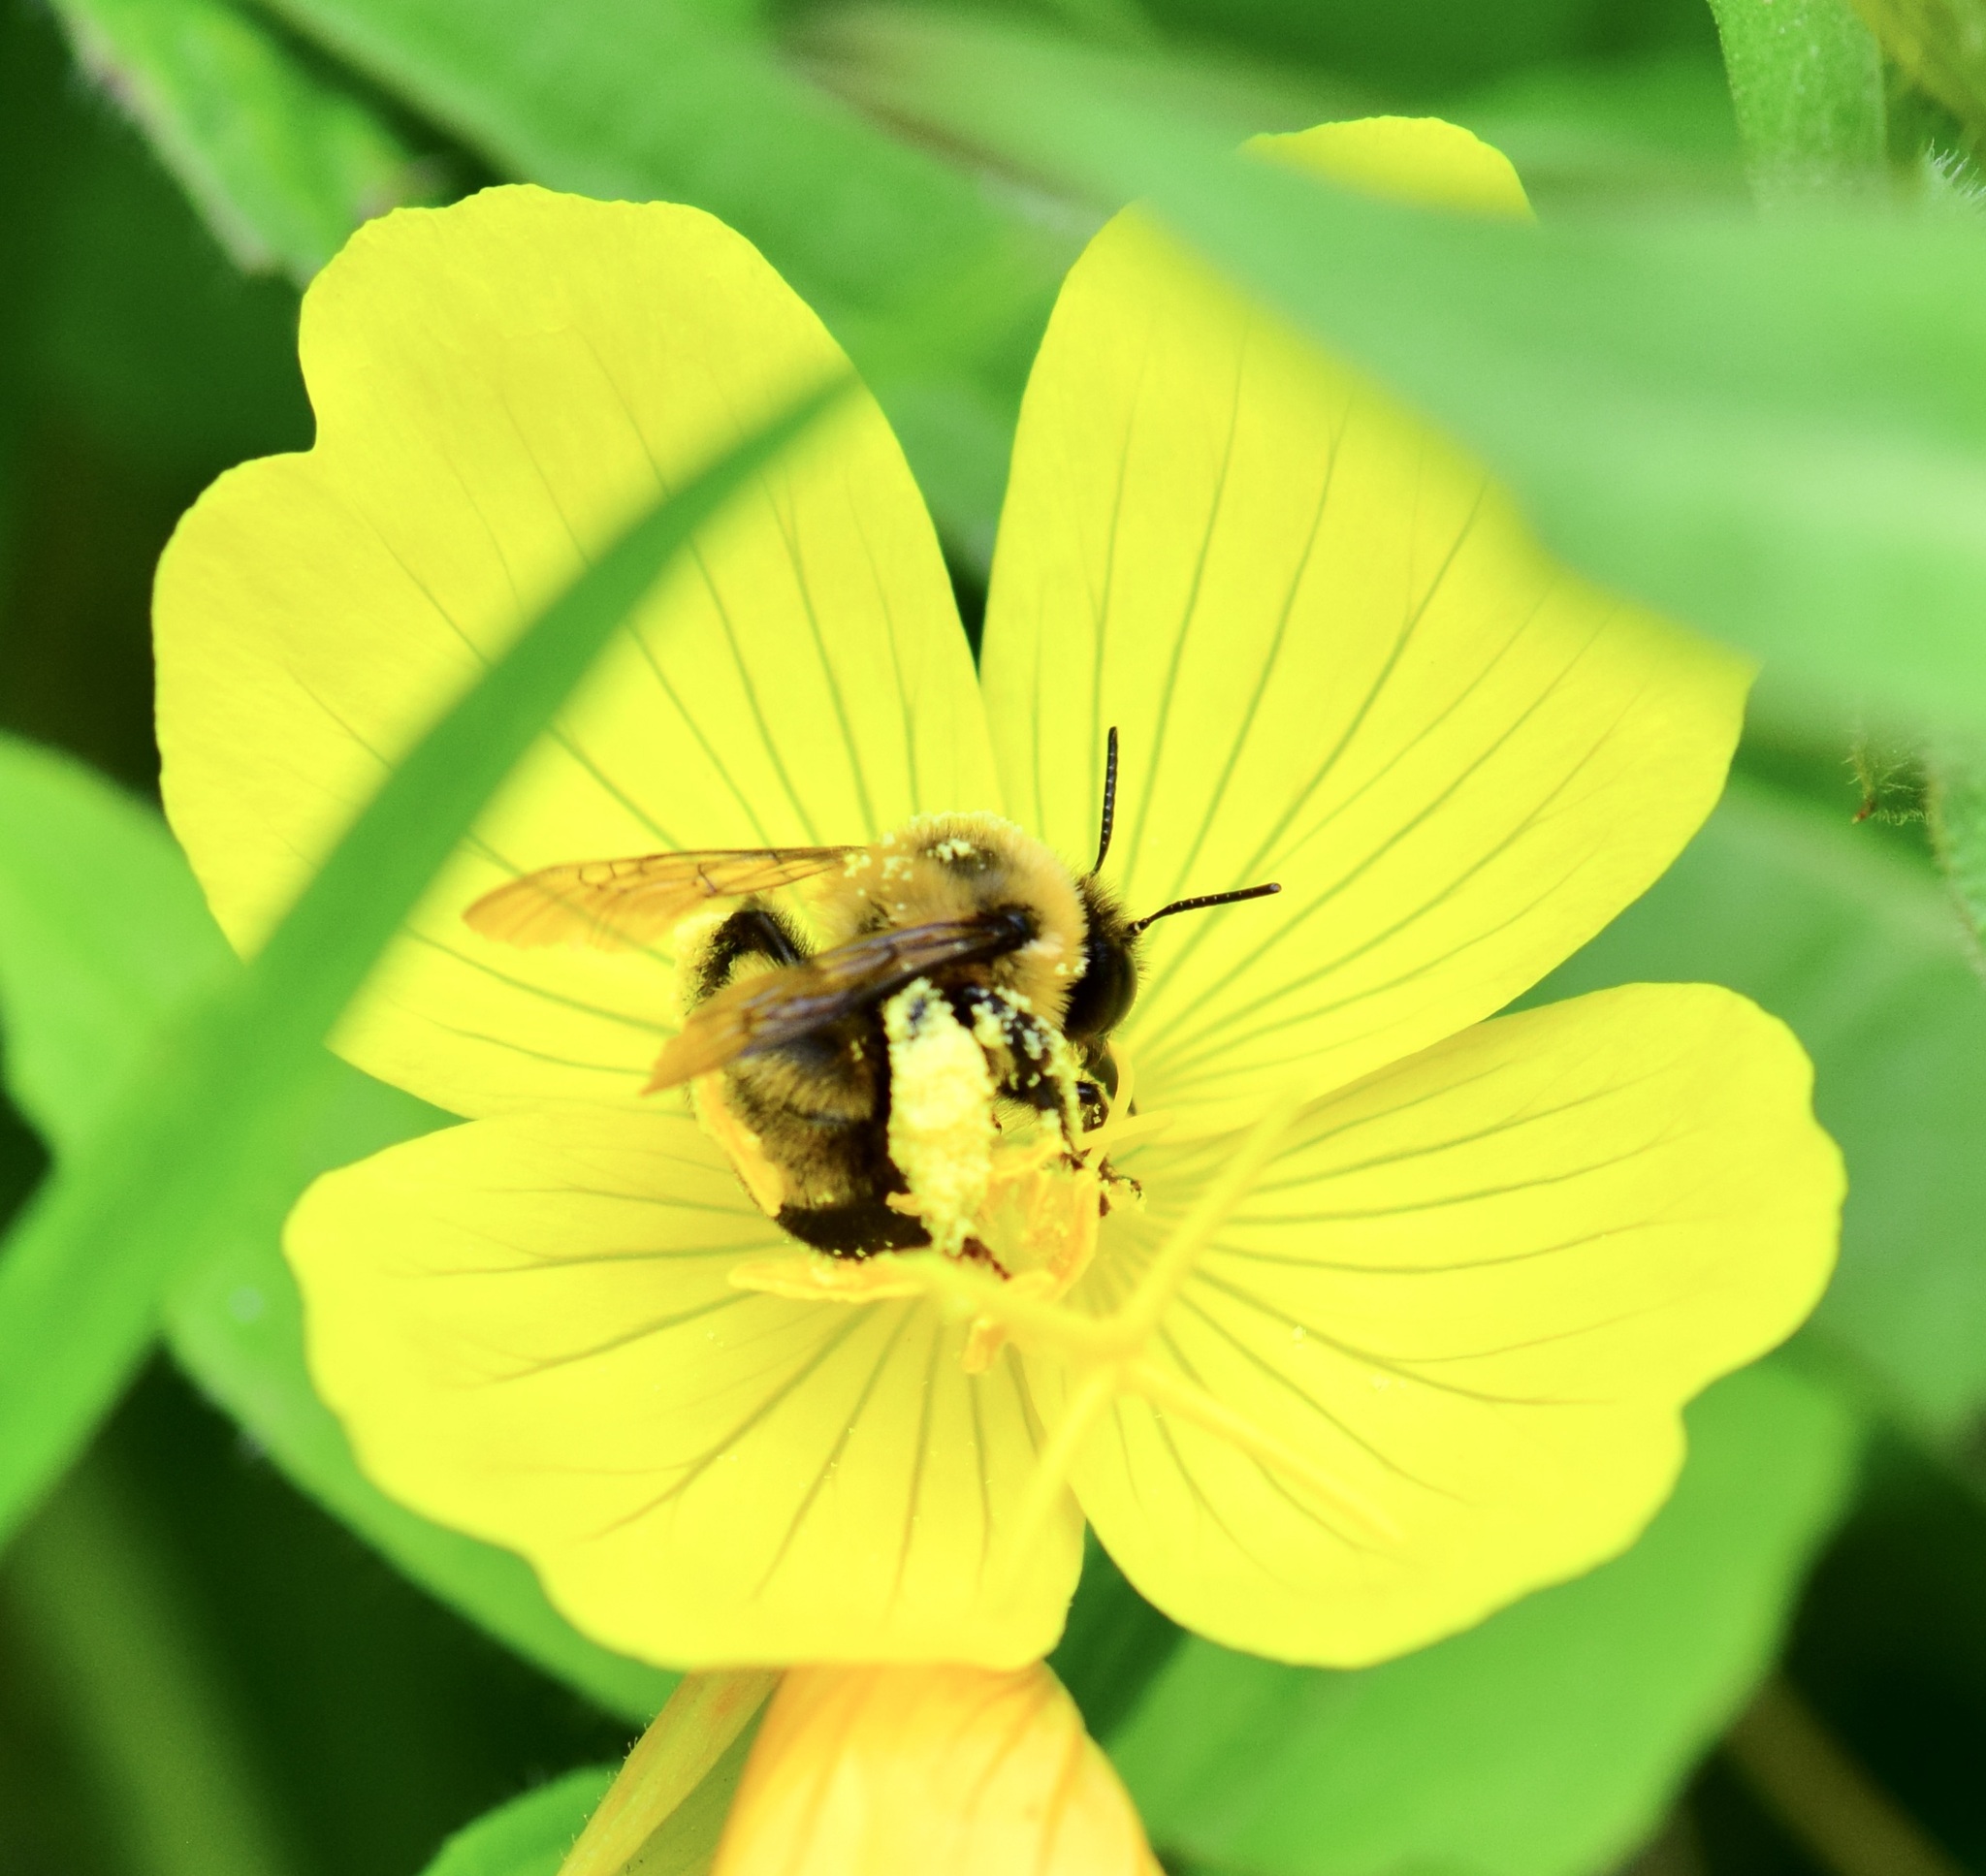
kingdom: Animalia
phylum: Arthropoda
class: Insecta
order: Hymenoptera
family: Apidae
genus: Anthophora
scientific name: Anthophora bomboides
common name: Bumble-bee-mimic digger bee
